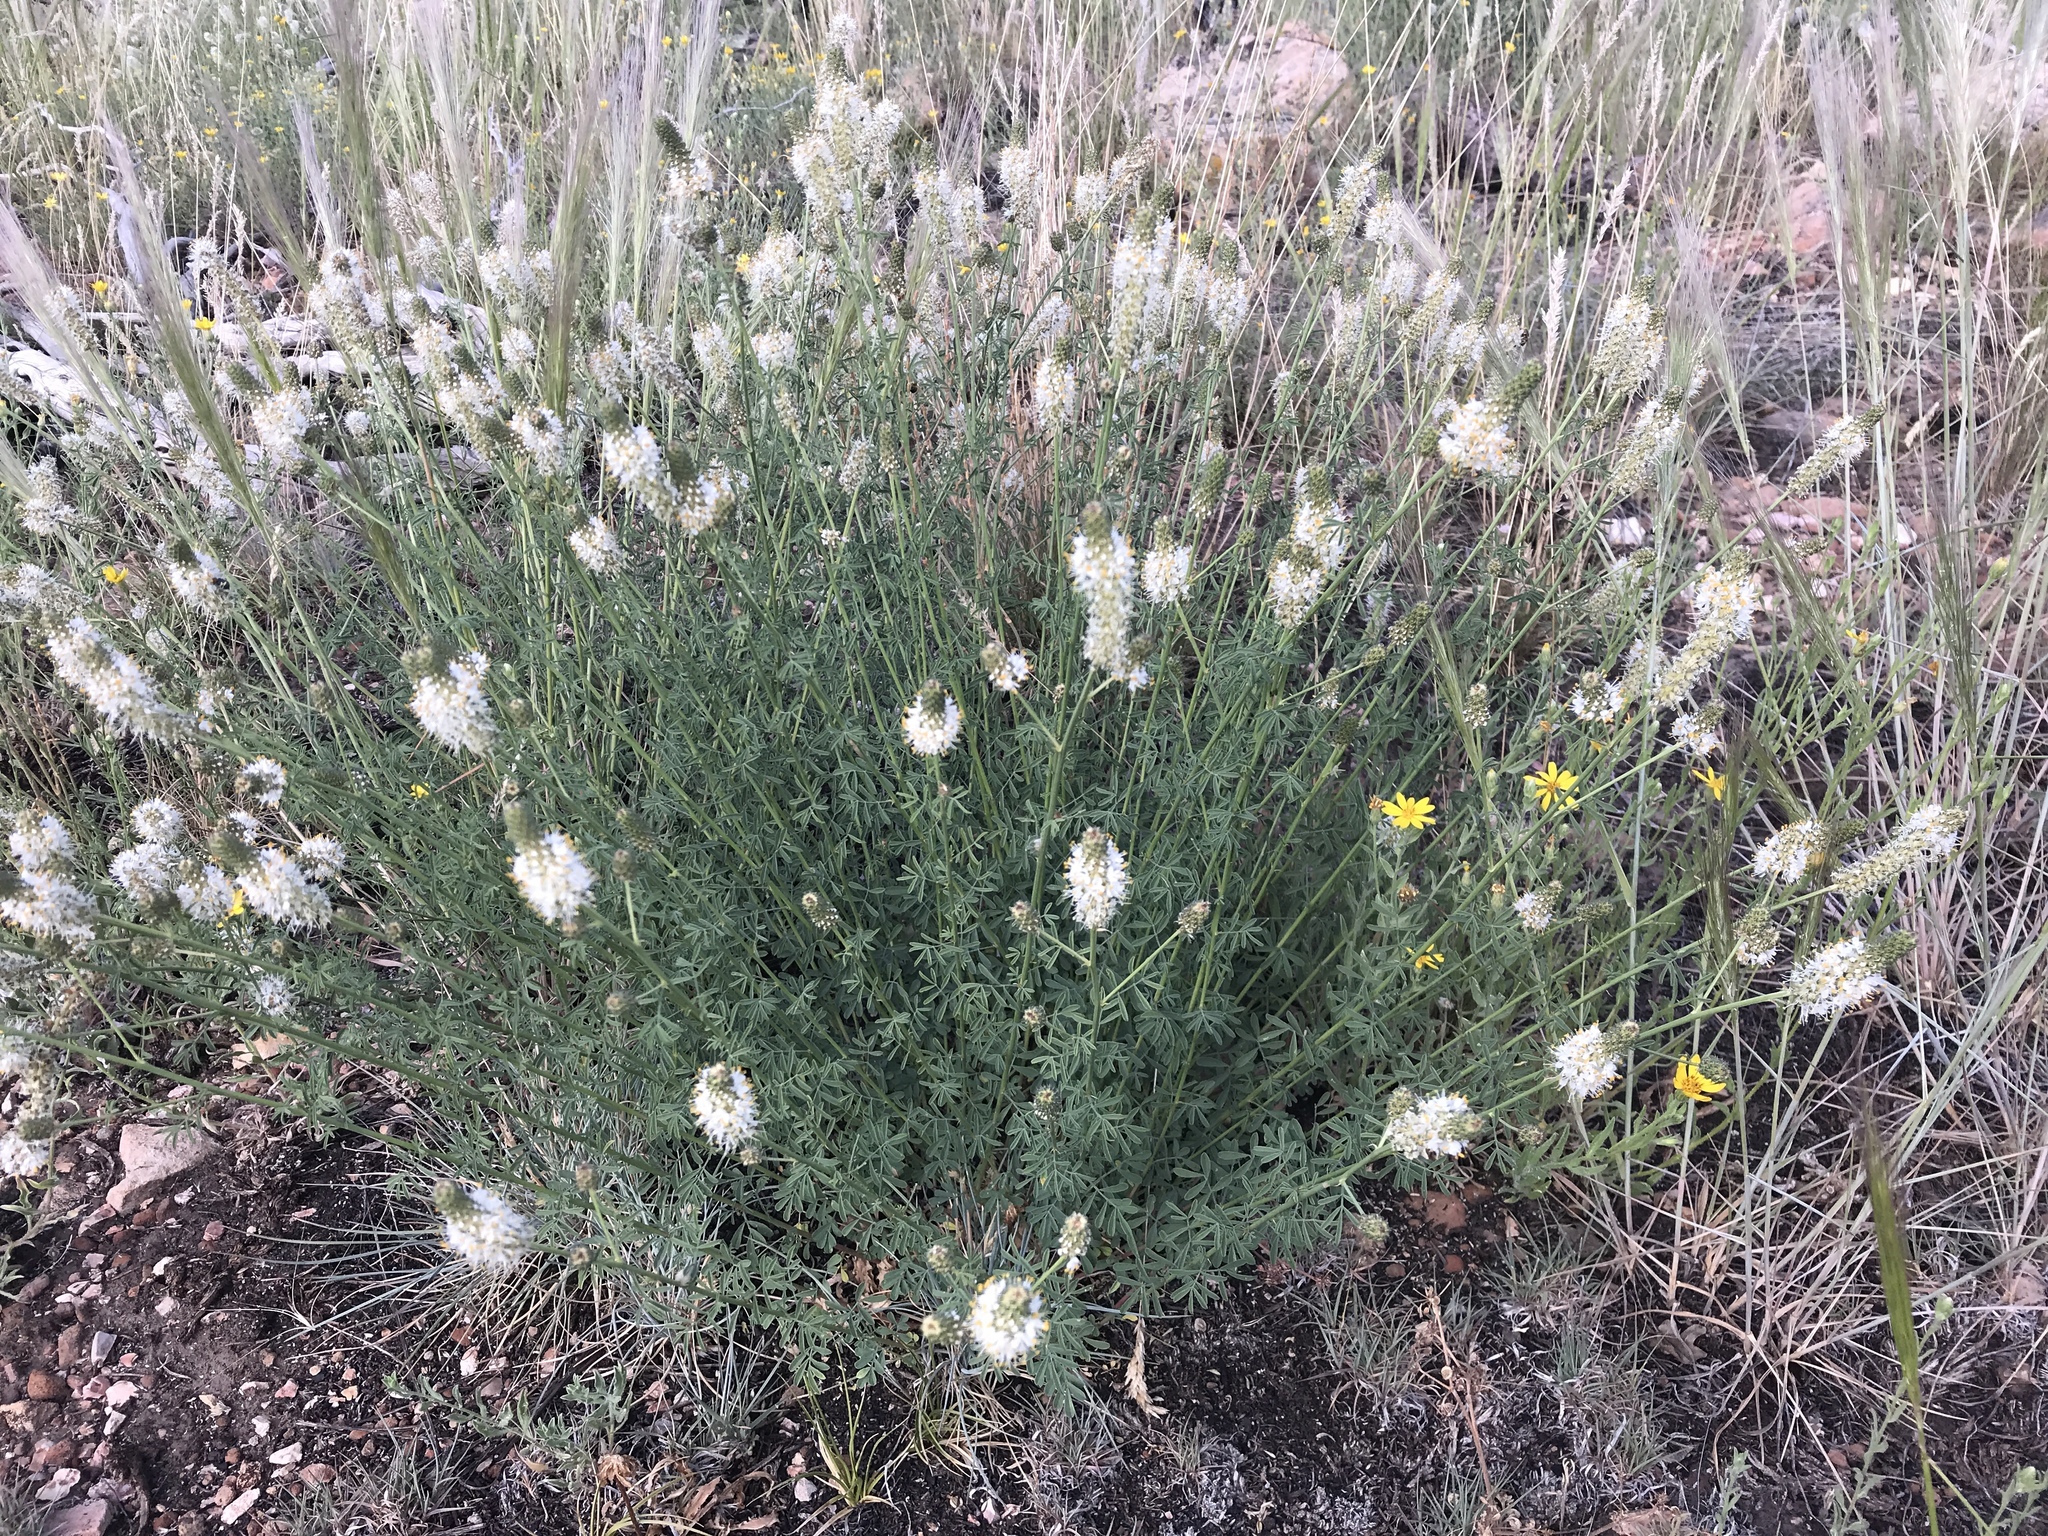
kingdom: Plantae
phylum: Tracheophyta
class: Magnoliopsida
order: Fabales
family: Fabaceae
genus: Dalea
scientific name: Dalea candida
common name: White prairie-clover
